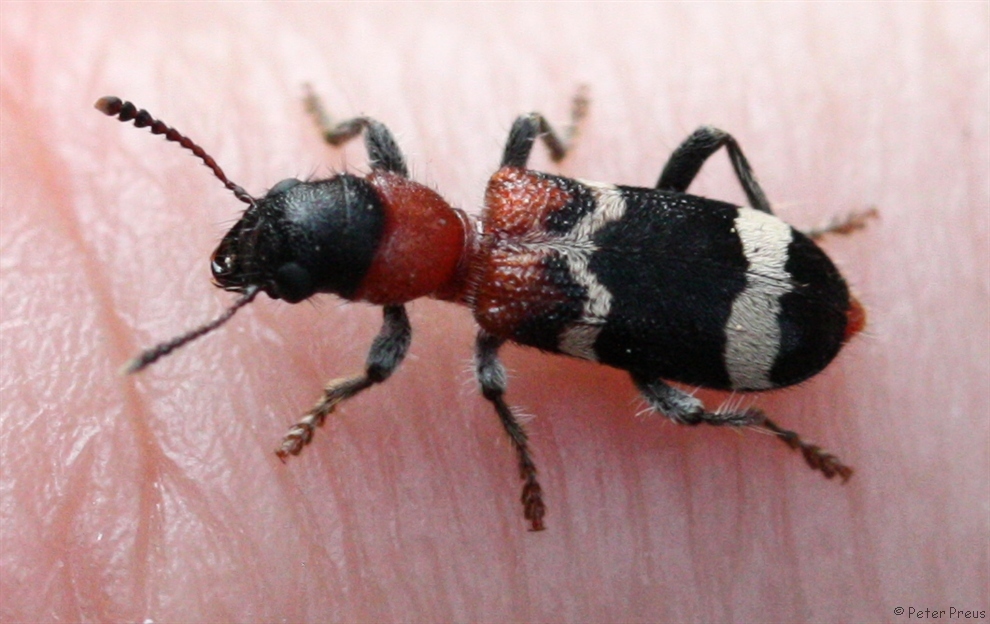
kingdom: Animalia
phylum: Arthropoda
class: Insecta
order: Coleoptera
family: Cleridae
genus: Thanasimus
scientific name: Thanasimus formicarius
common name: Ant beetle
